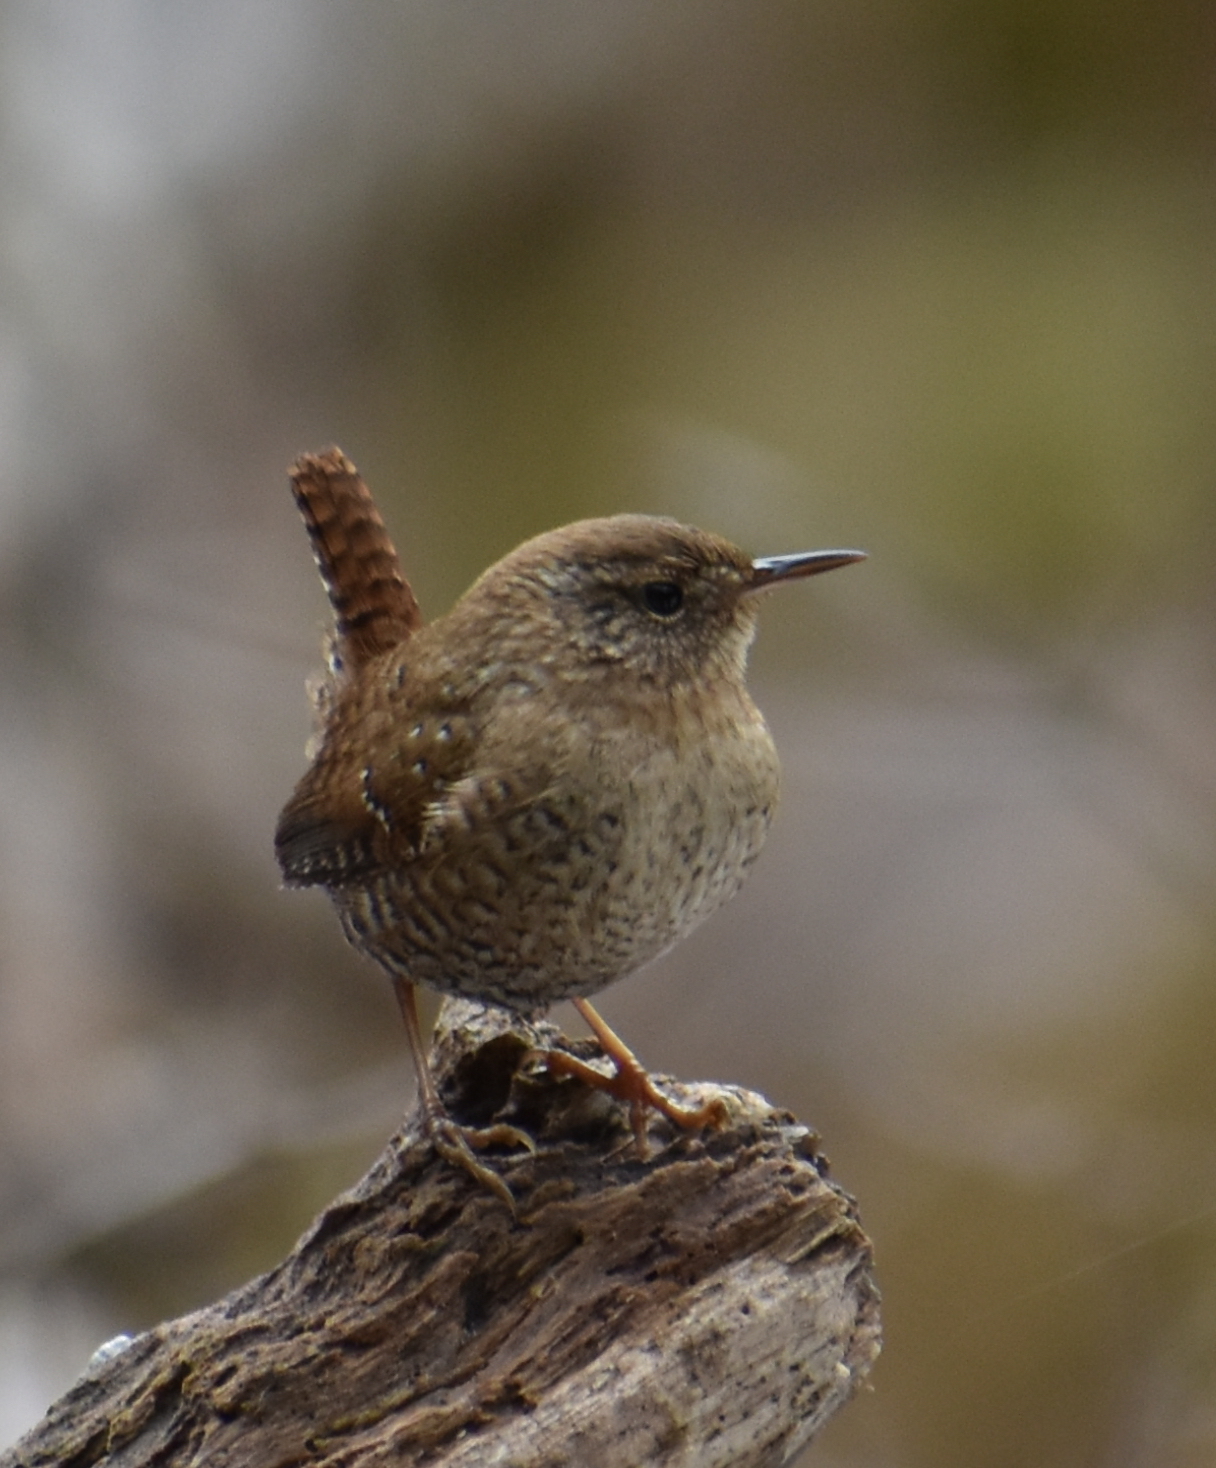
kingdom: Animalia
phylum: Chordata
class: Aves
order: Passeriformes
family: Troglodytidae
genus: Troglodytes
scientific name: Troglodytes hiemalis
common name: Winter wren
